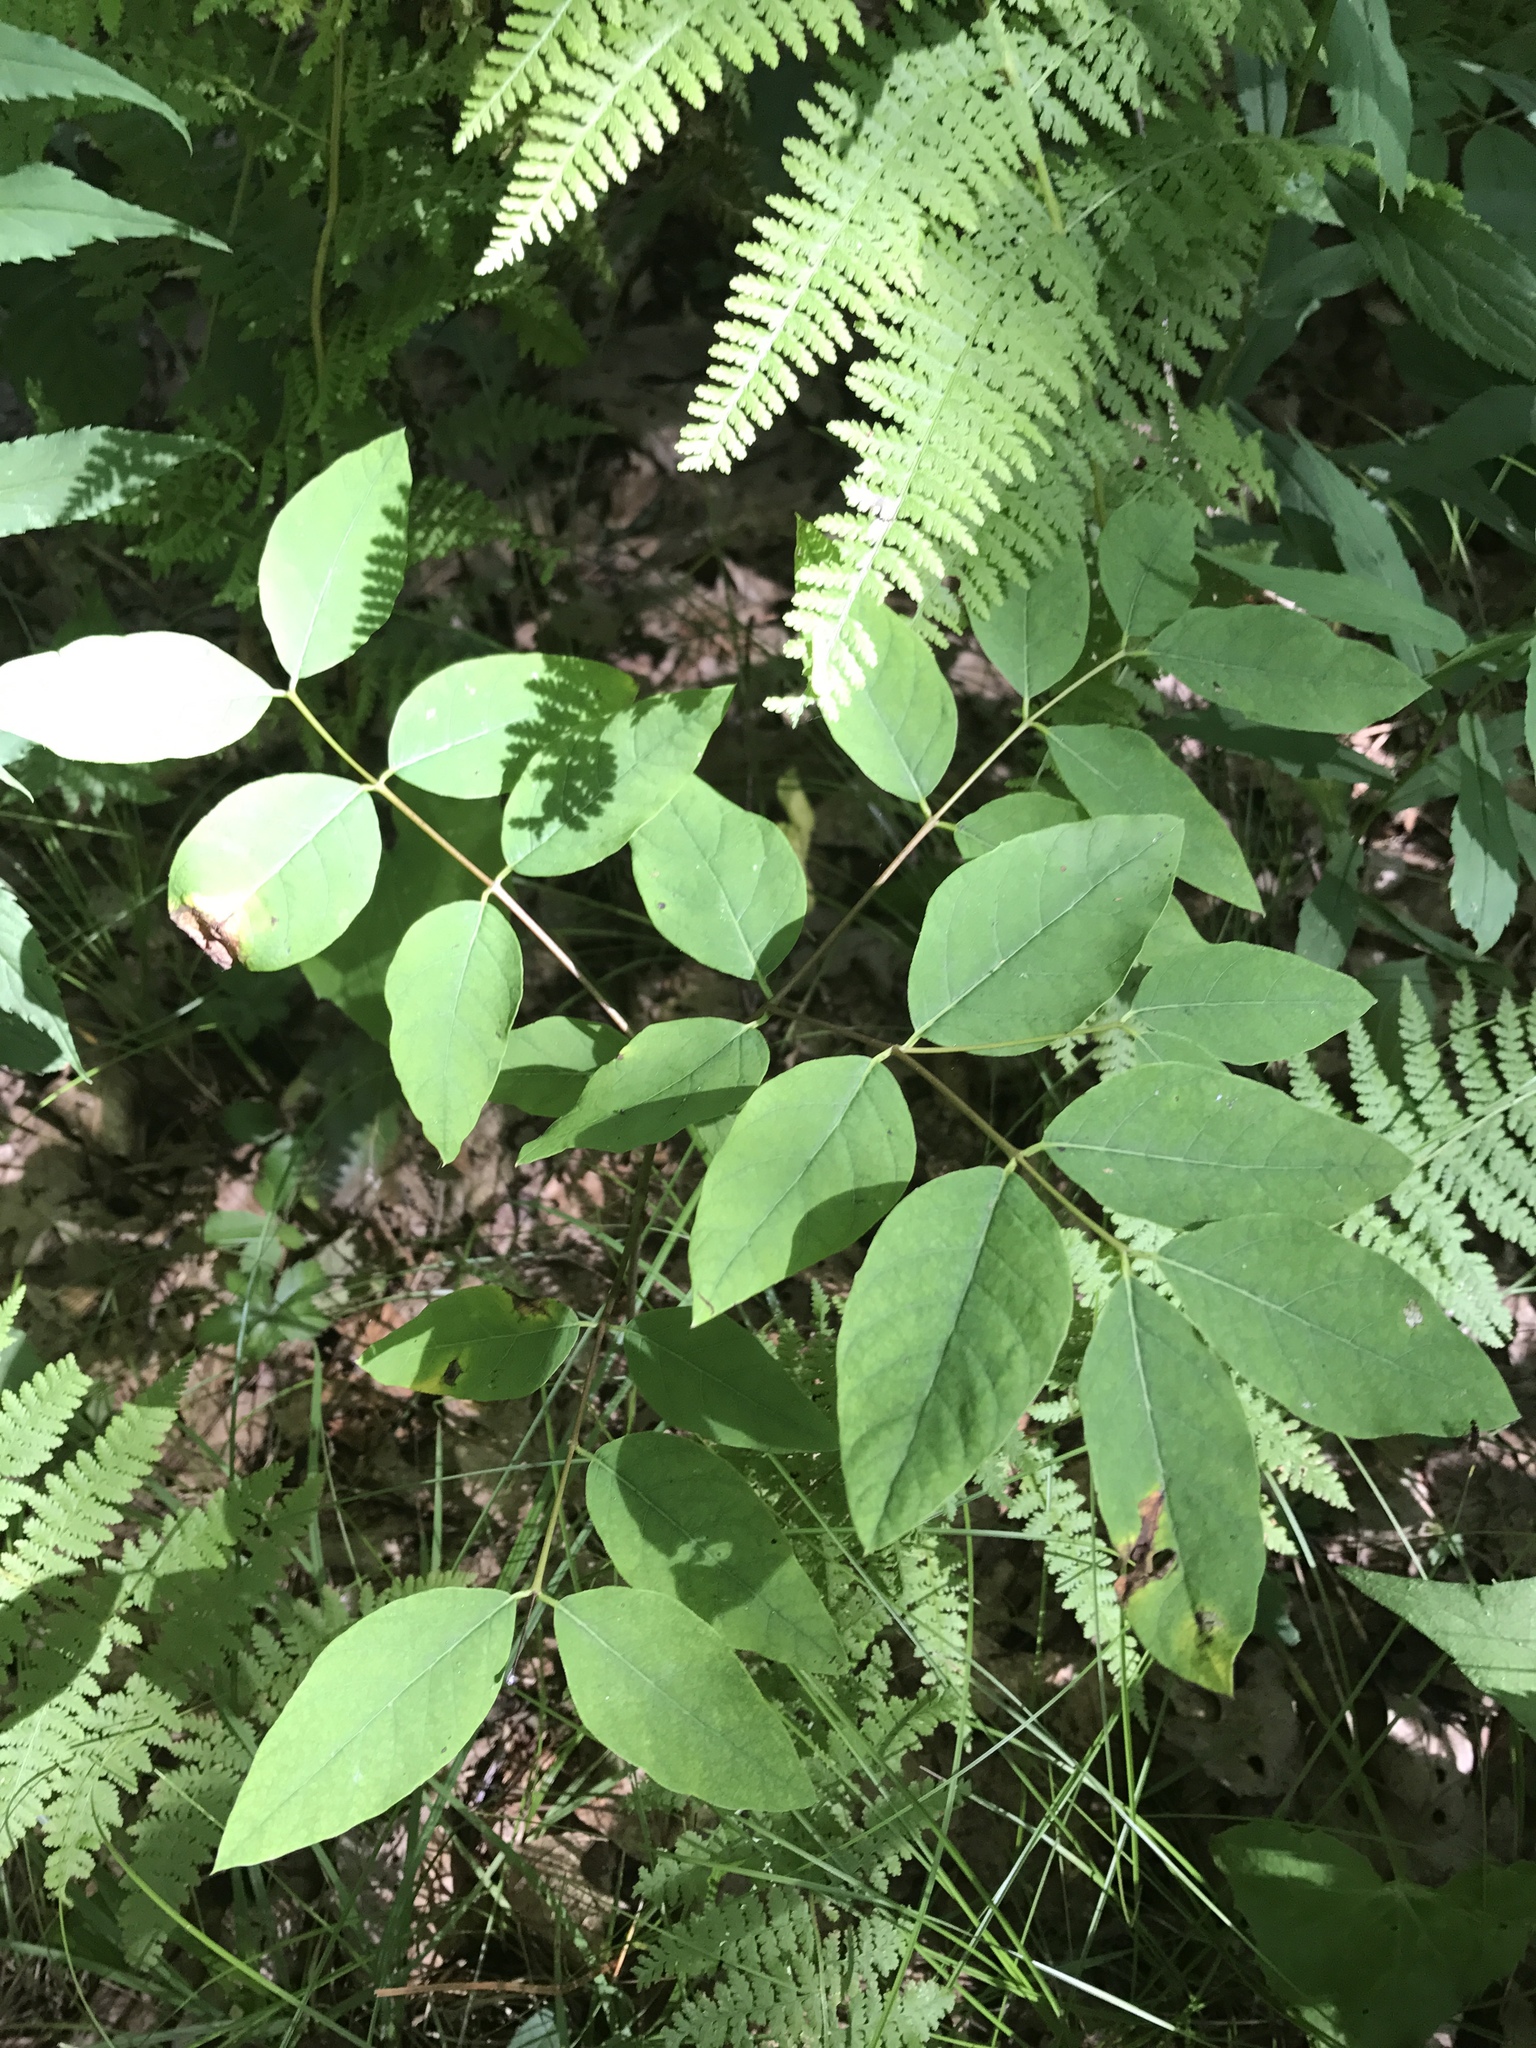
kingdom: Plantae
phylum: Tracheophyta
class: Magnoliopsida
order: Gentianales
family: Apocynaceae
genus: Apocynum
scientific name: Apocynum androsaemifolium
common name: Spreading dogbane
